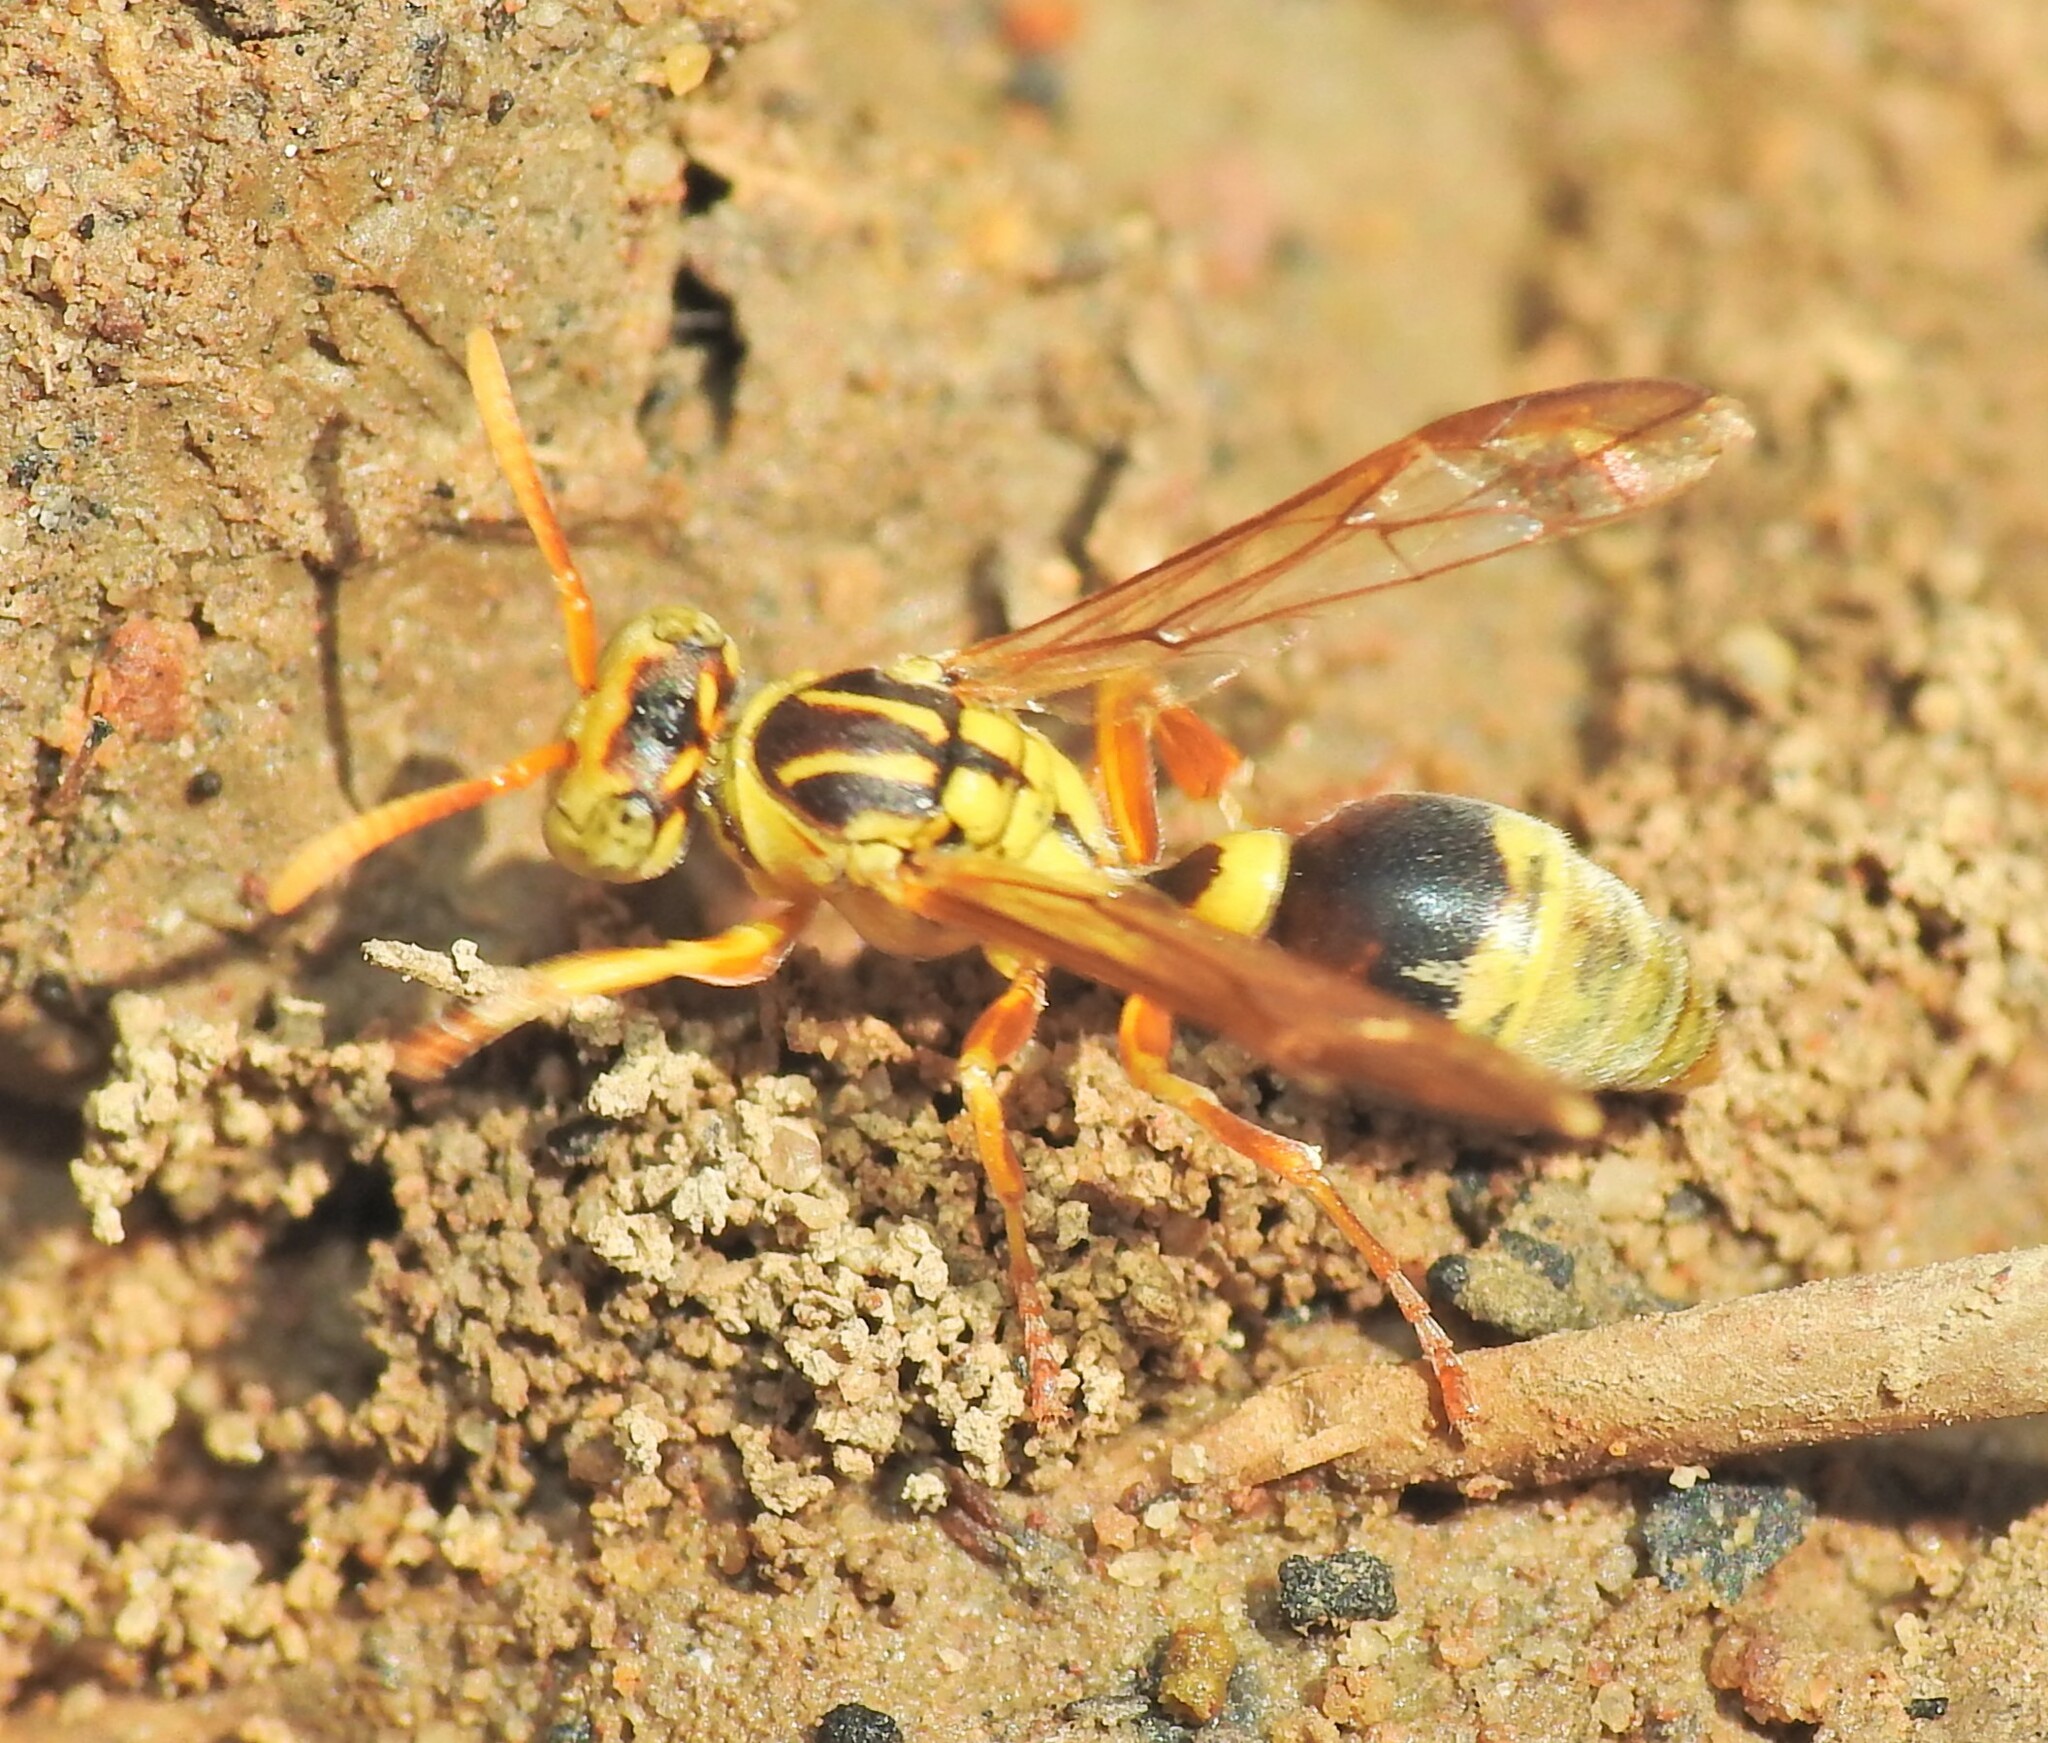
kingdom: Animalia
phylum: Arthropoda
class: Insecta
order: Hymenoptera
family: Vespidae
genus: Ropalidia
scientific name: Ropalidia romandi
